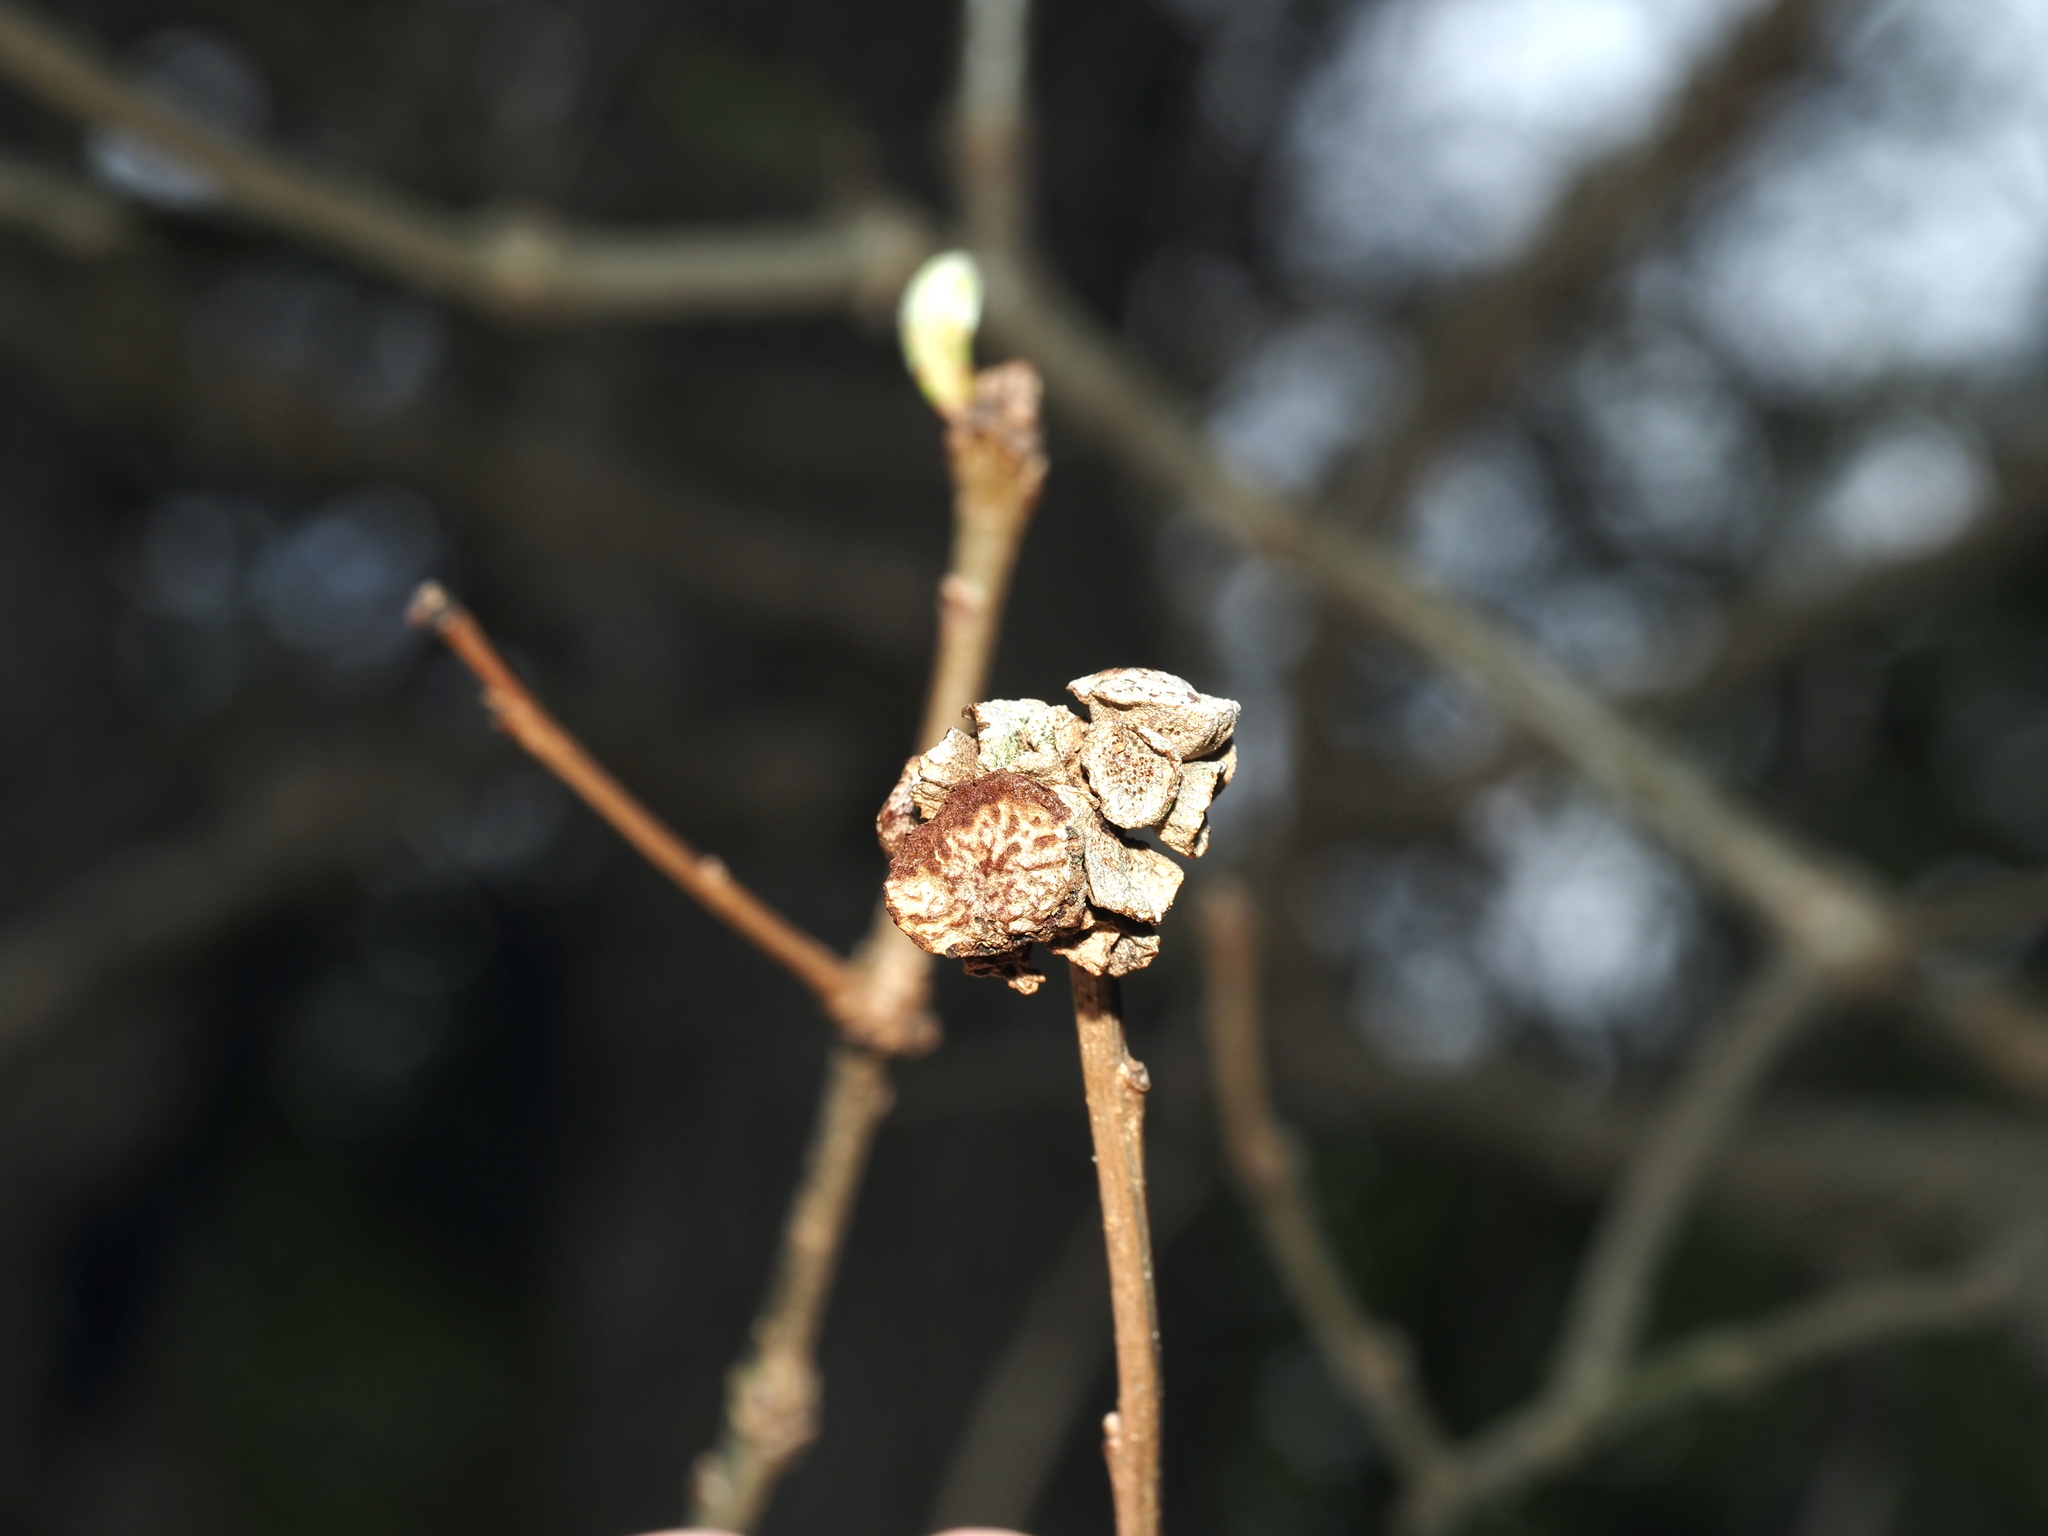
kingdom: Animalia
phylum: Arthropoda
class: Insecta
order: Hymenoptera
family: Cynipidae
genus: Andricus
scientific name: Andricus
